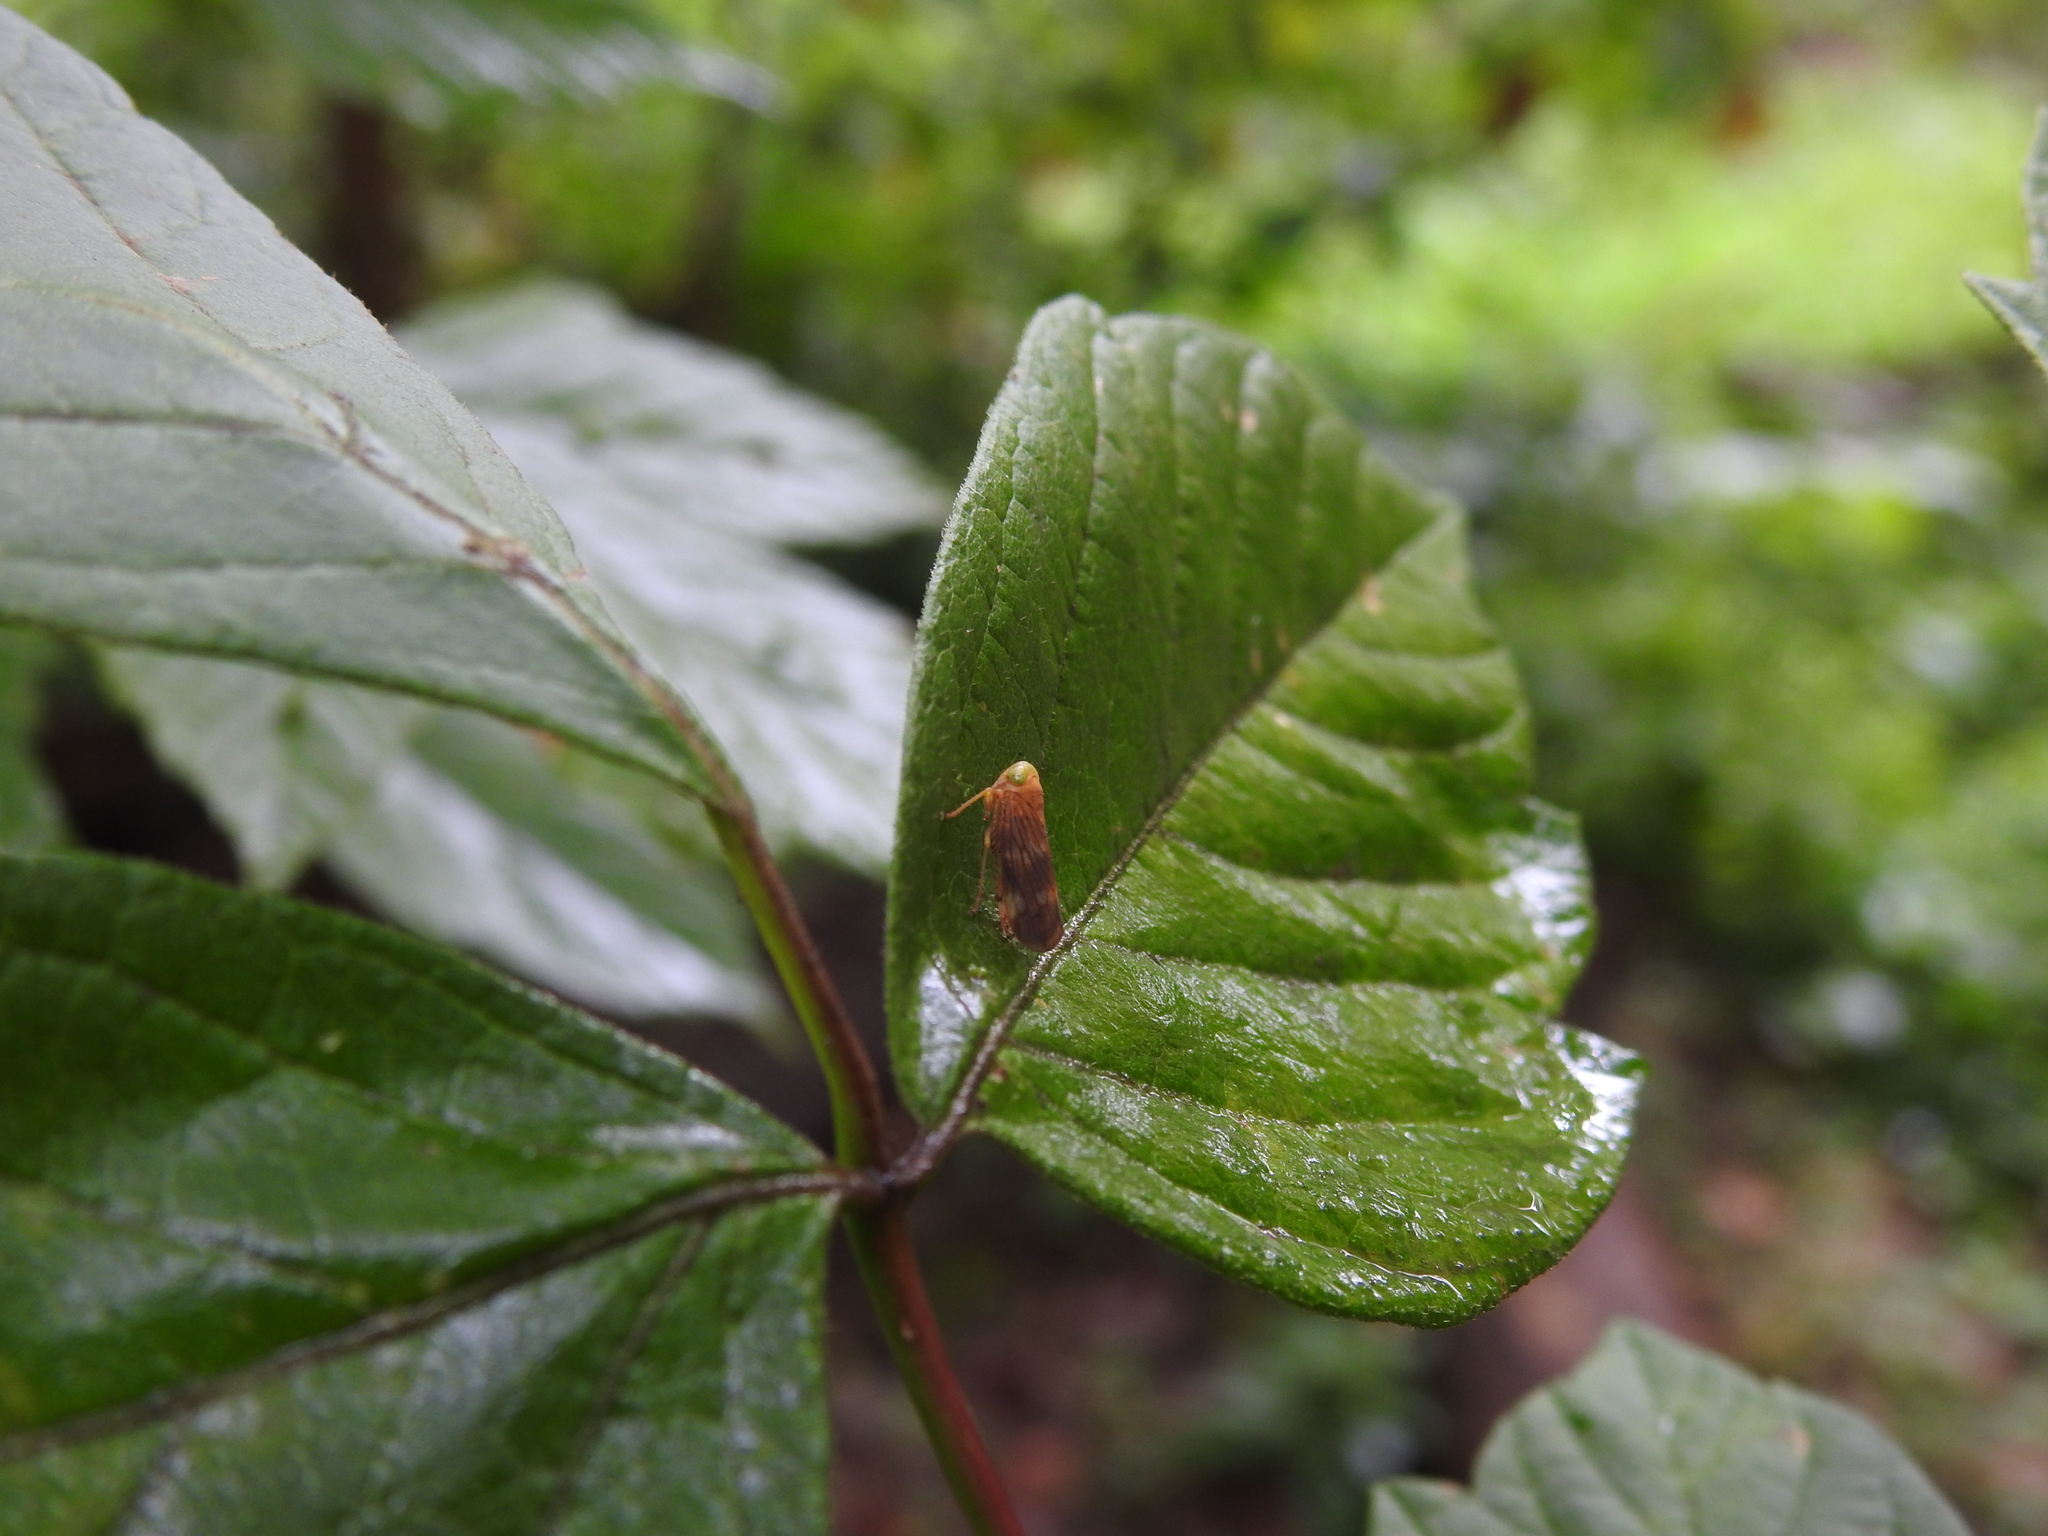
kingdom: Animalia
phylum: Arthropoda
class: Insecta
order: Hemiptera
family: Cicadellidae
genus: Jikradia
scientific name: Jikradia olitoria
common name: Coppery leafhopper
